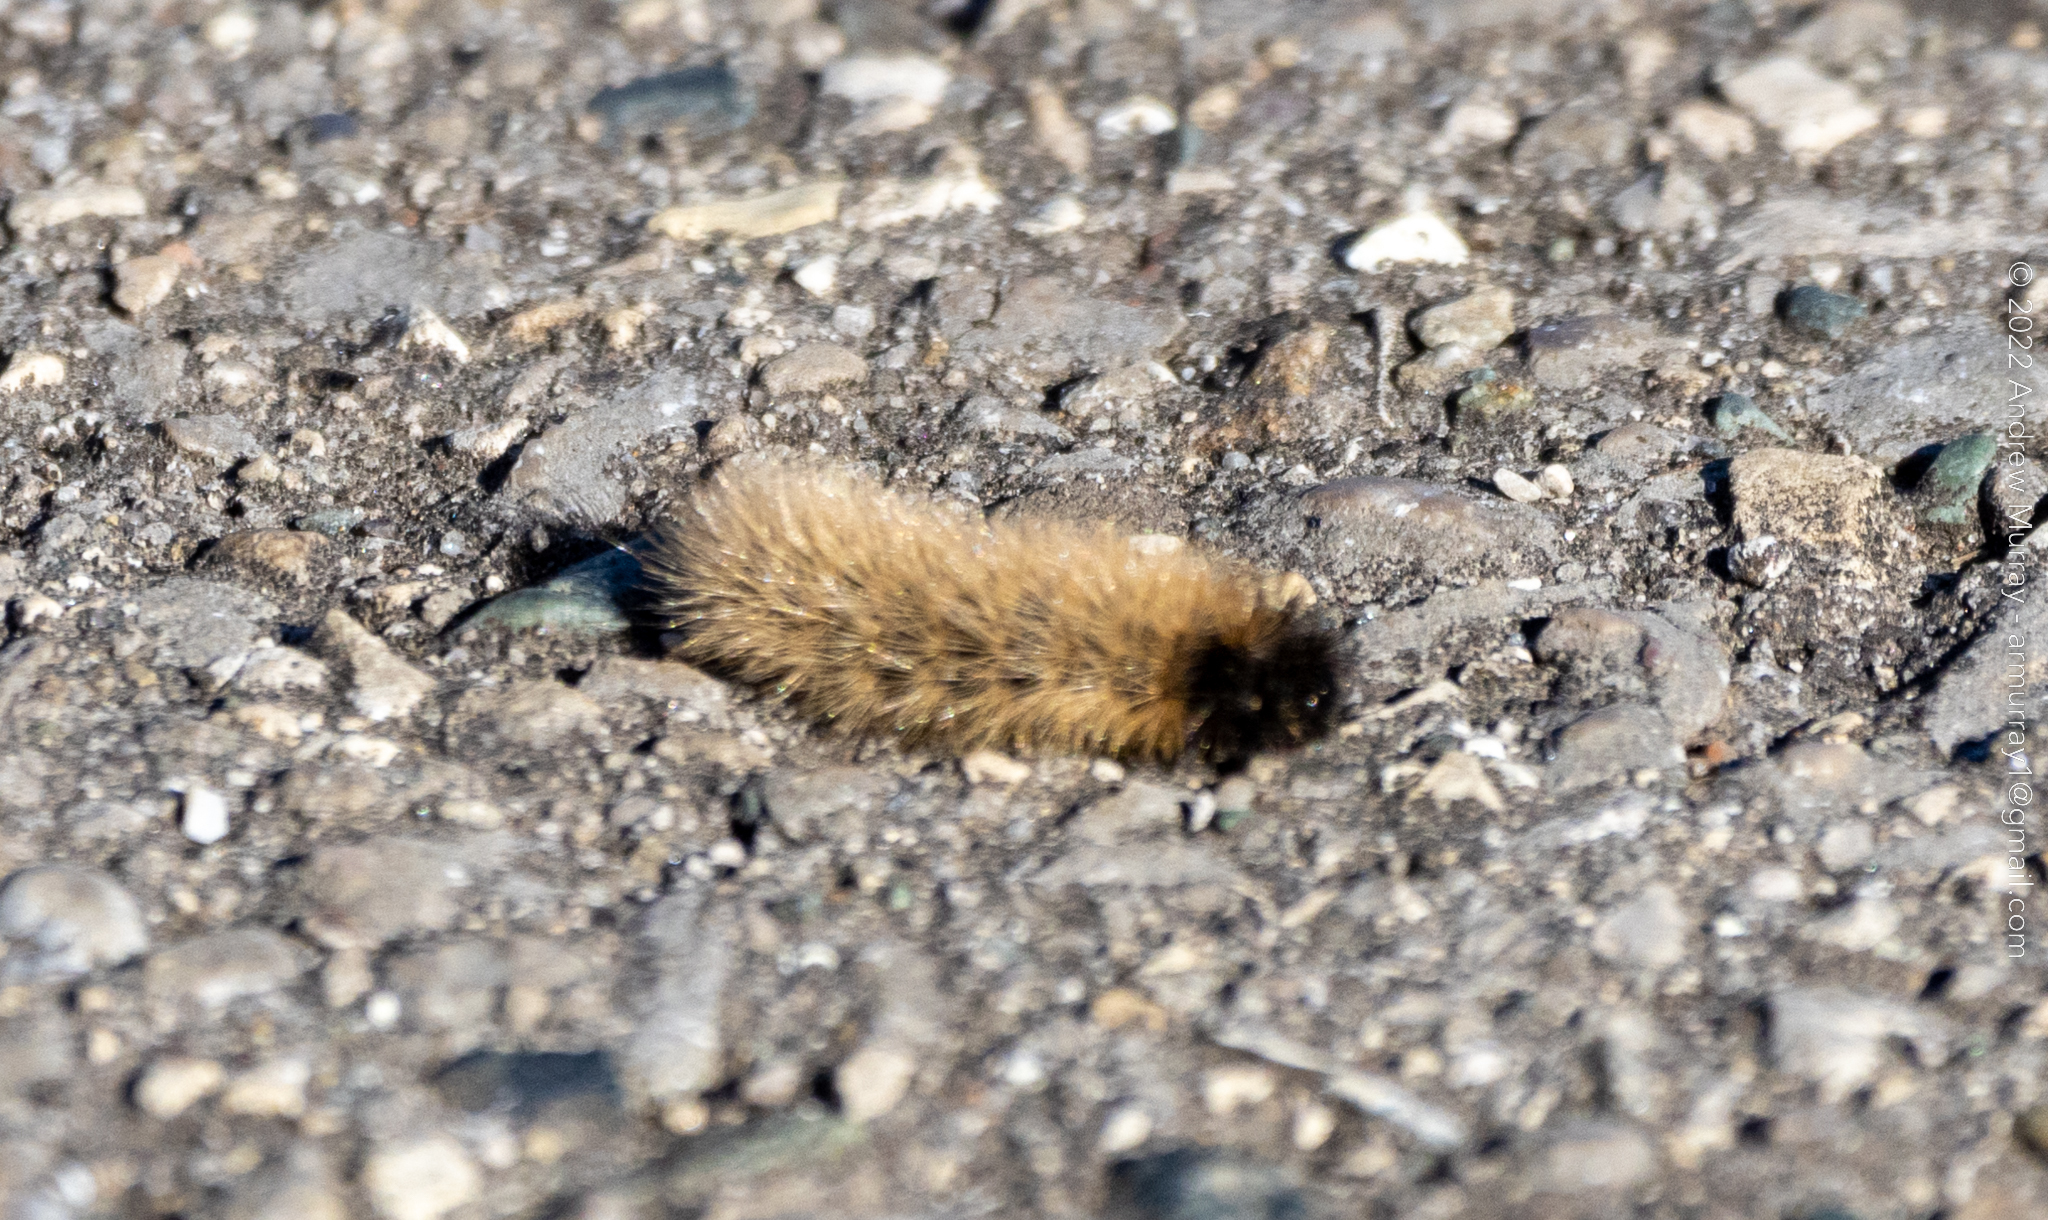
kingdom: Animalia
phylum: Arthropoda
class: Insecta
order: Lepidoptera
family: Erebidae
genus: Phragmatobia
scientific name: Phragmatobia fuliginosa
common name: Ruby tiger
